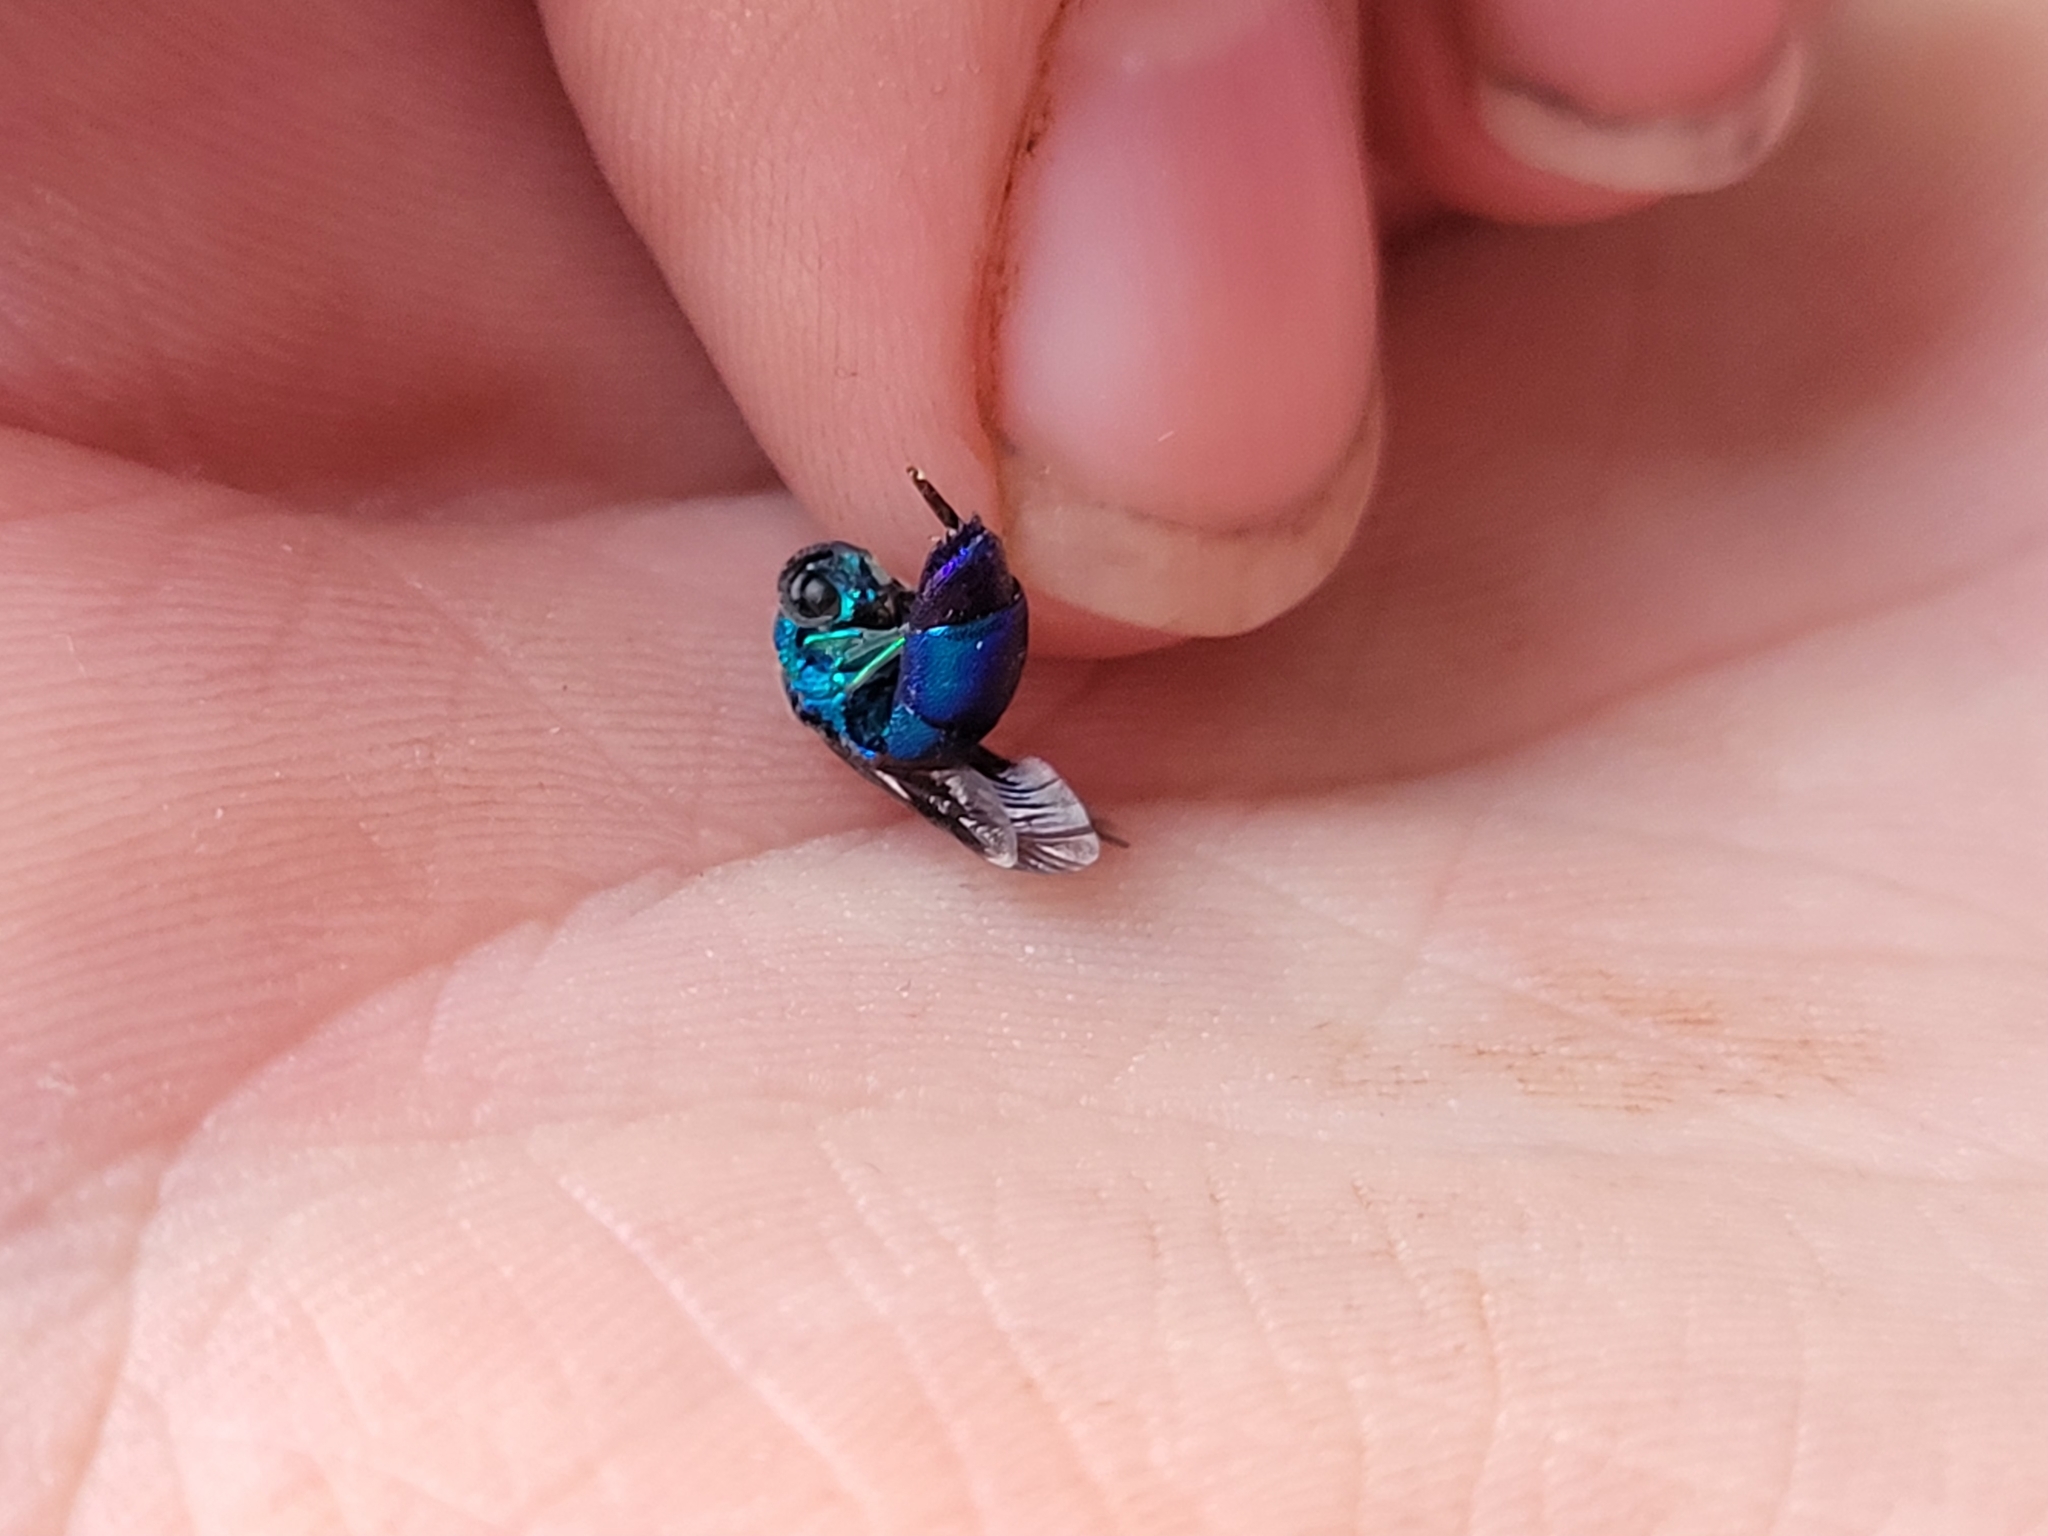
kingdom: Animalia
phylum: Arthropoda
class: Insecta
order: Hymenoptera
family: Chrysididae
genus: Chrysis
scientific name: Chrysis angolensis
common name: Cuckoo wasp
